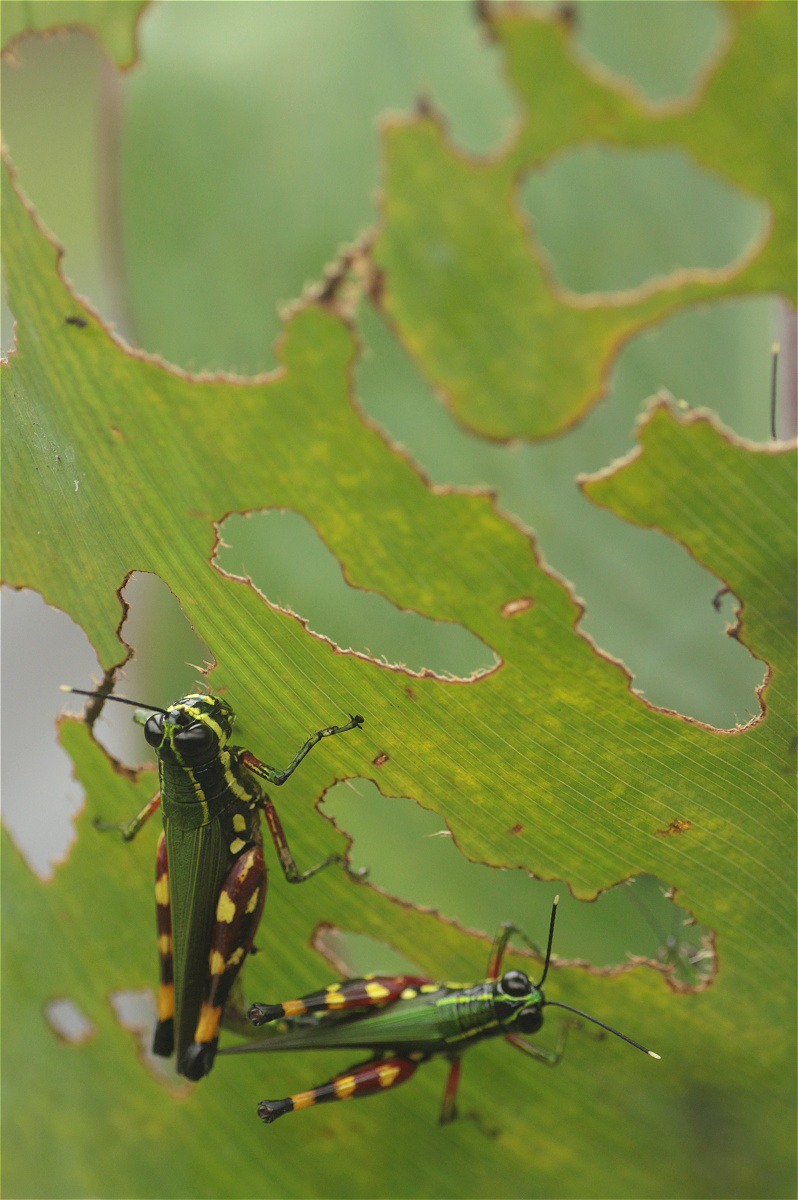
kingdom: Animalia
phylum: Arthropoda
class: Insecta
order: Orthoptera
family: Acrididae
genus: Tetrataenia
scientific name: Tetrataenia surinama
